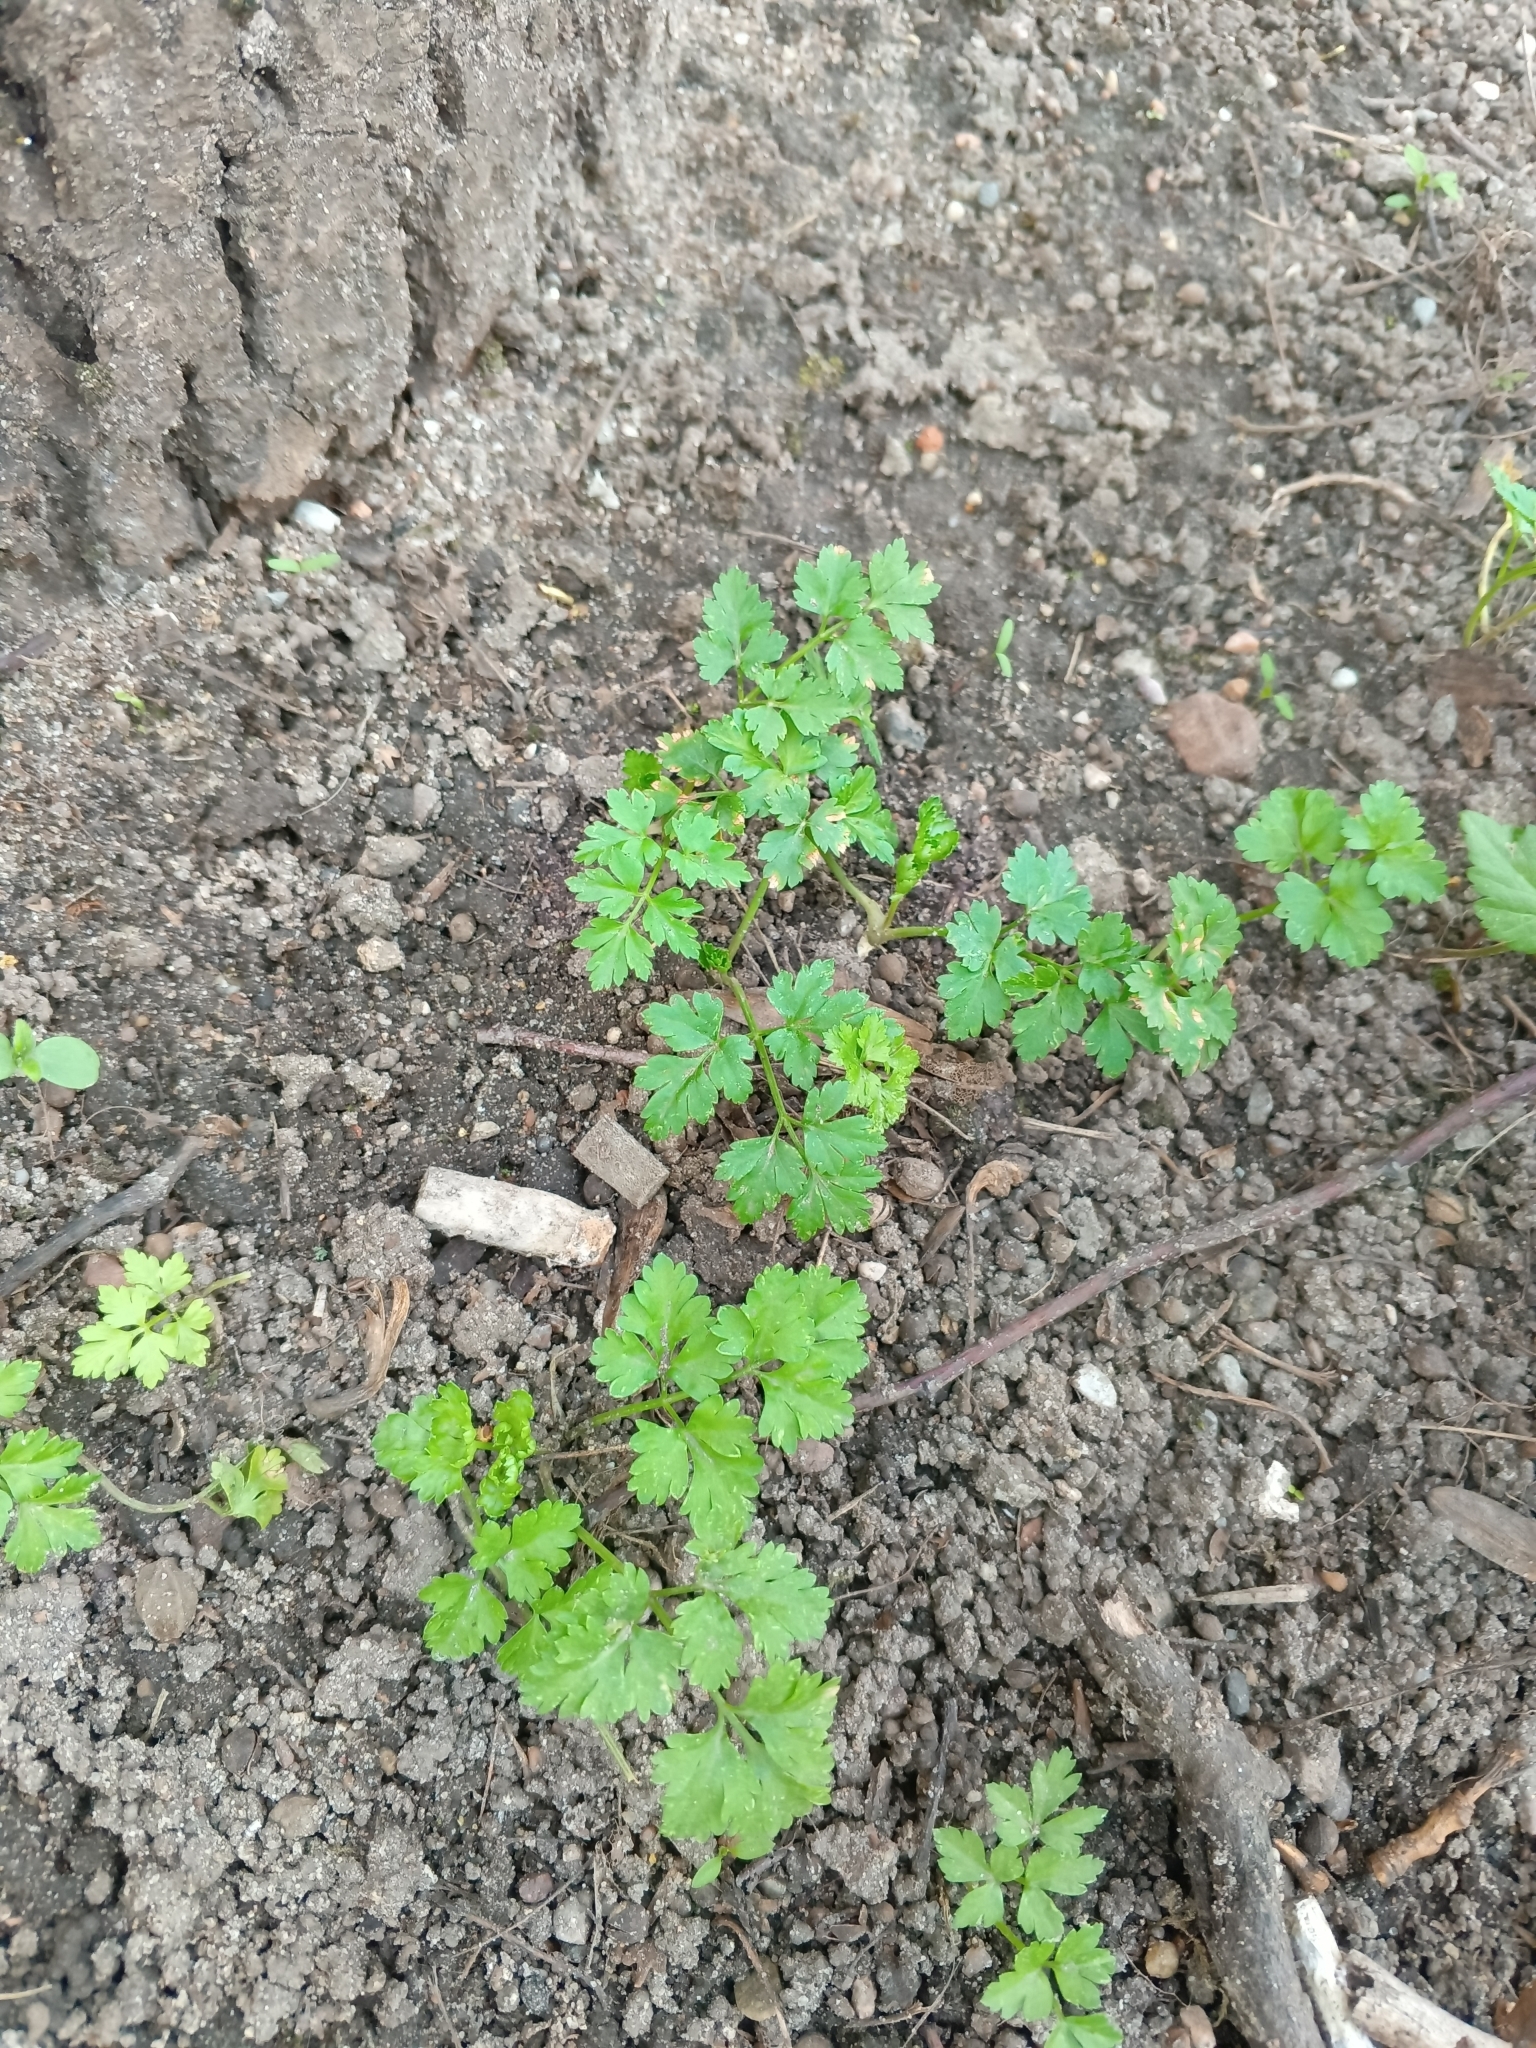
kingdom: Plantae
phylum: Tracheophyta
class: Magnoliopsida
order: Apiales
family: Apiaceae
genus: Aethusa
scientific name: Aethusa cynapium
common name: Fool's parsley
